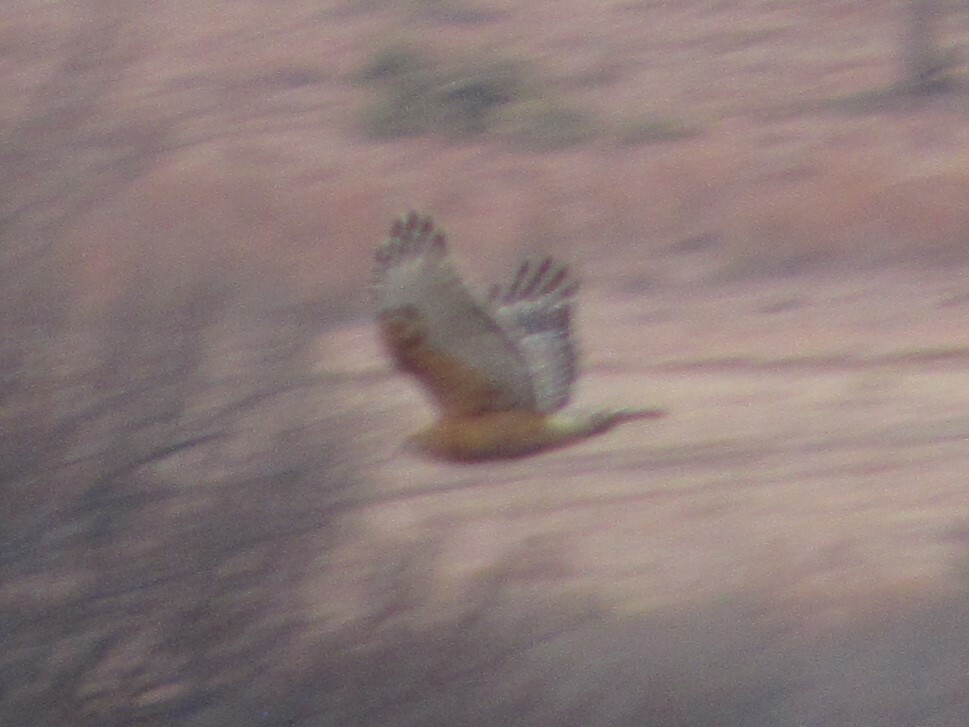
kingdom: Animalia
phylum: Chordata
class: Aves
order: Accipitriformes
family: Accipitridae
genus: Buteo
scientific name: Buteo lineatus
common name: Red-shouldered hawk
